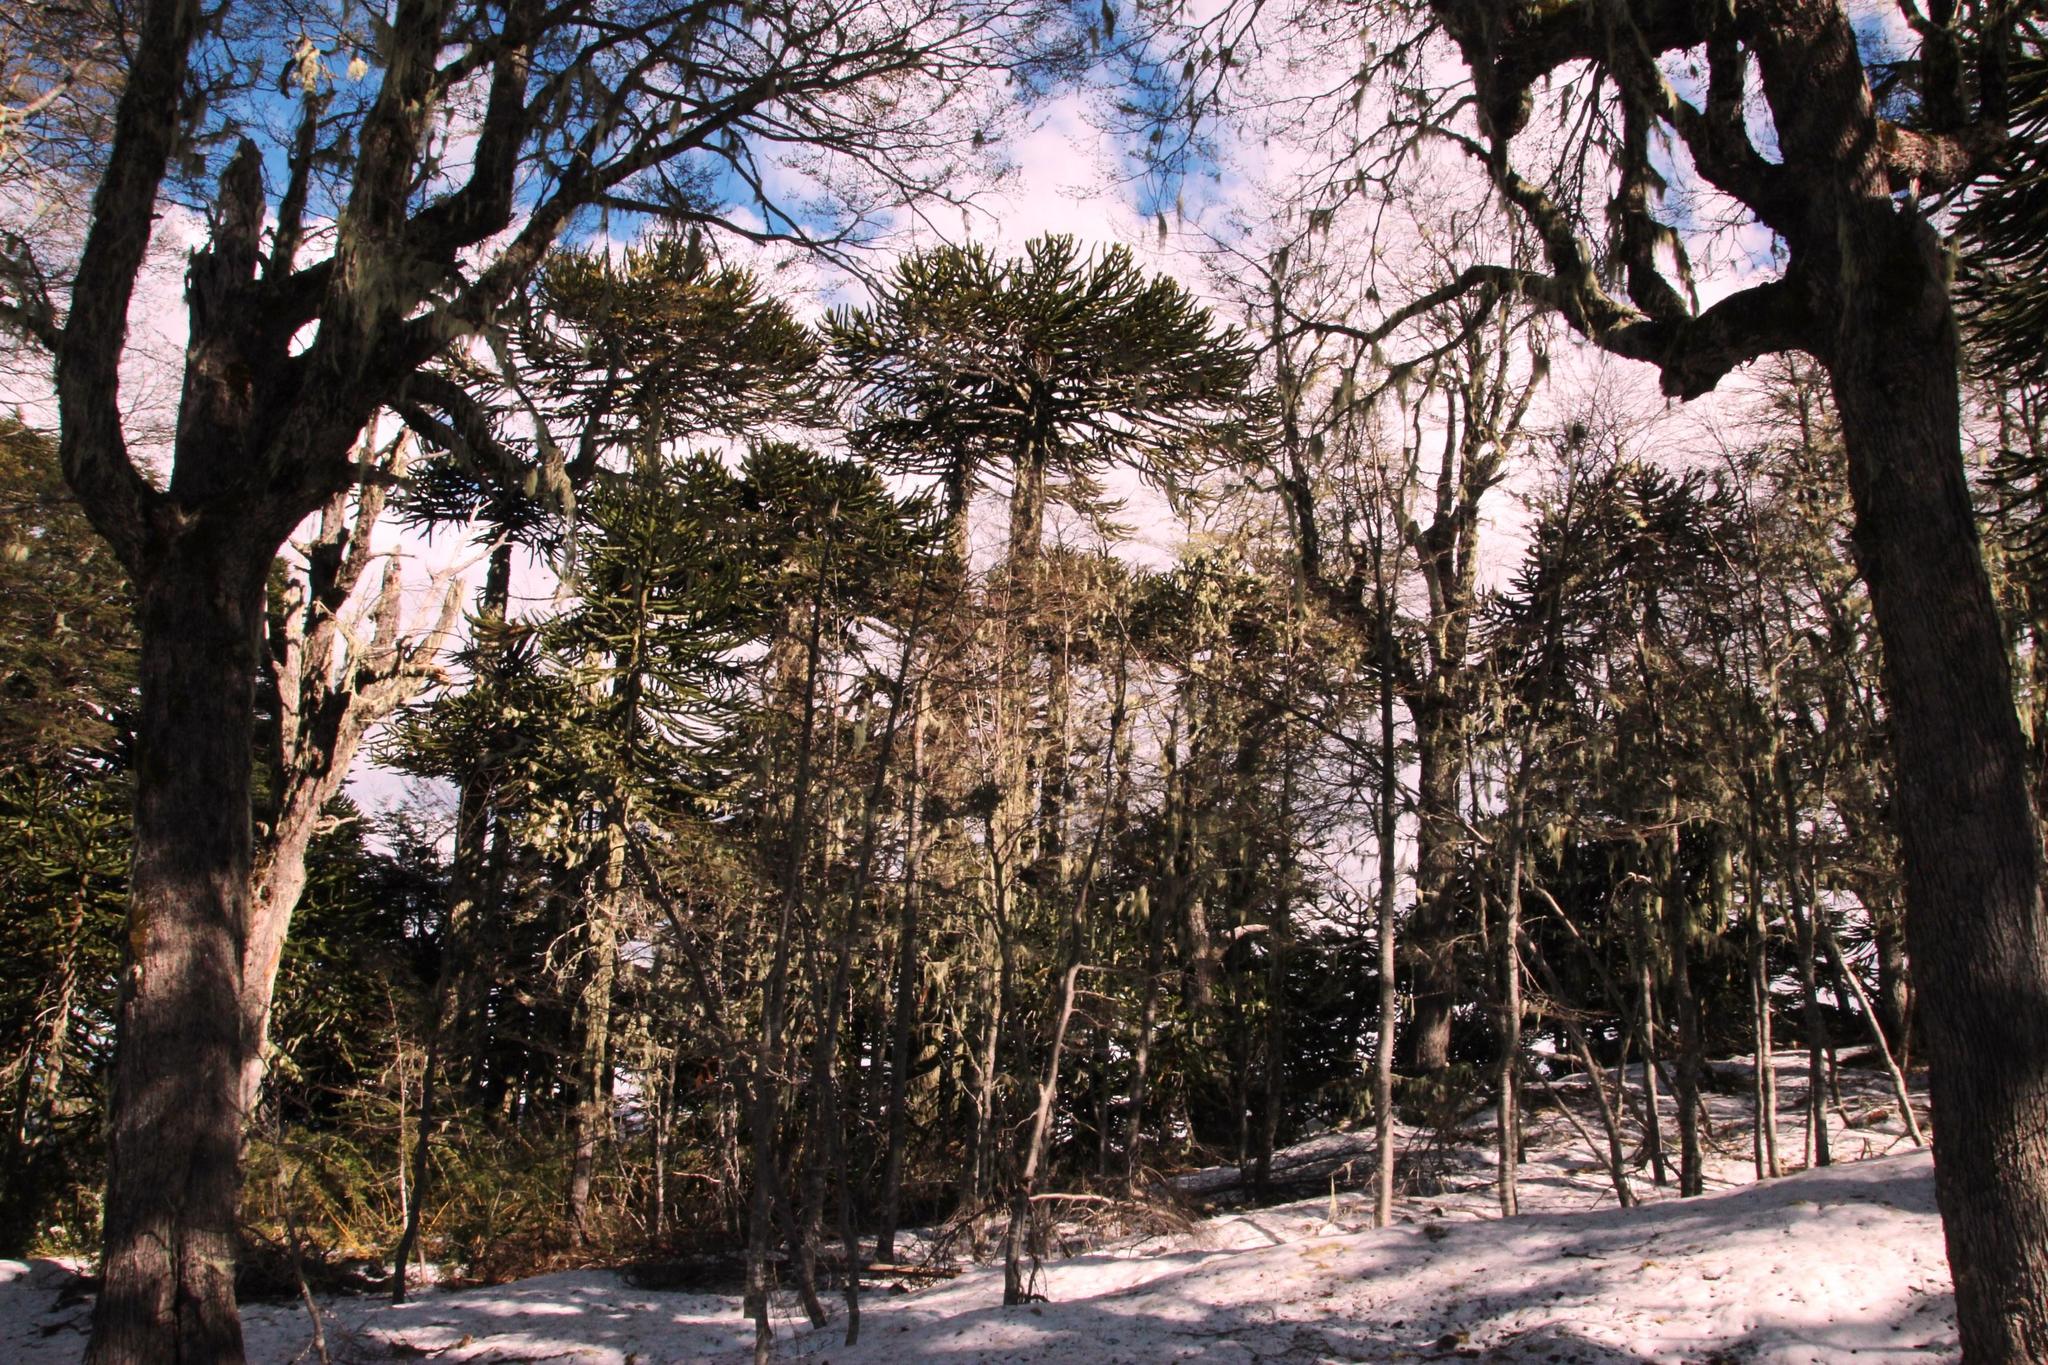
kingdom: Plantae
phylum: Tracheophyta
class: Pinopsida
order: Pinales
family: Araucariaceae
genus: Araucaria
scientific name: Araucaria araucana
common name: Monkey-puzzle
